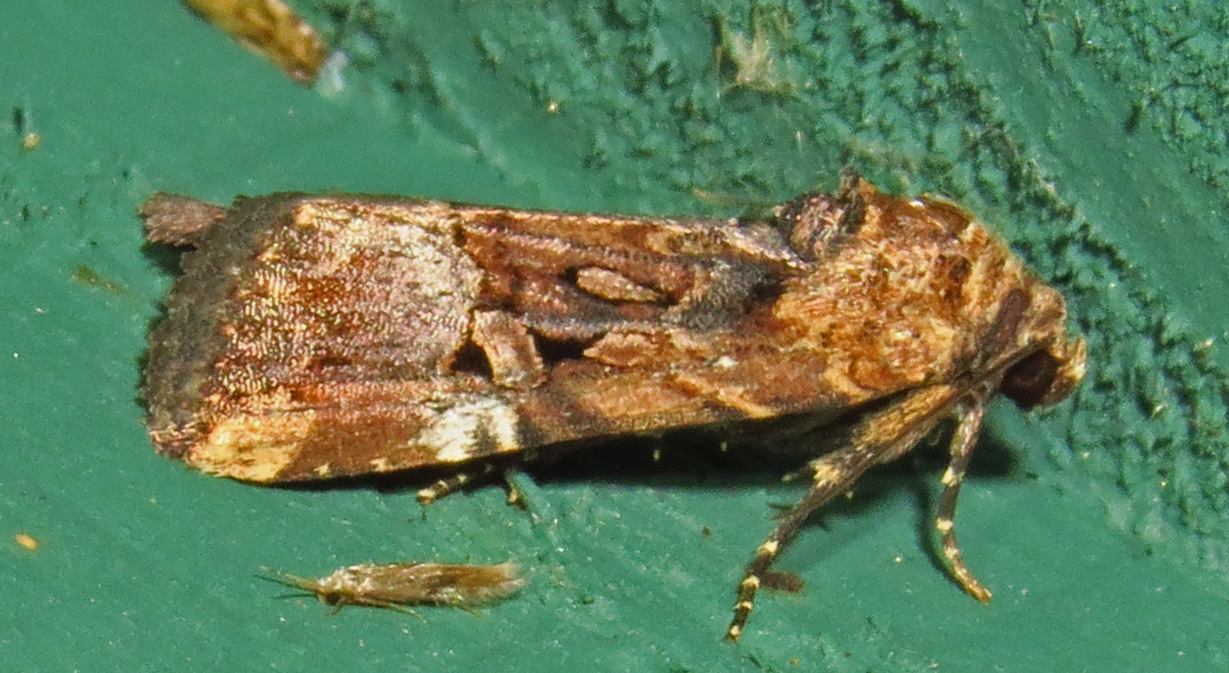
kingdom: Animalia
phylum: Arthropoda
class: Insecta
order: Lepidoptera
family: Noctuidae
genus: Elaphria
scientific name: Elaphria chalcedonia
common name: Chalcedony midget
